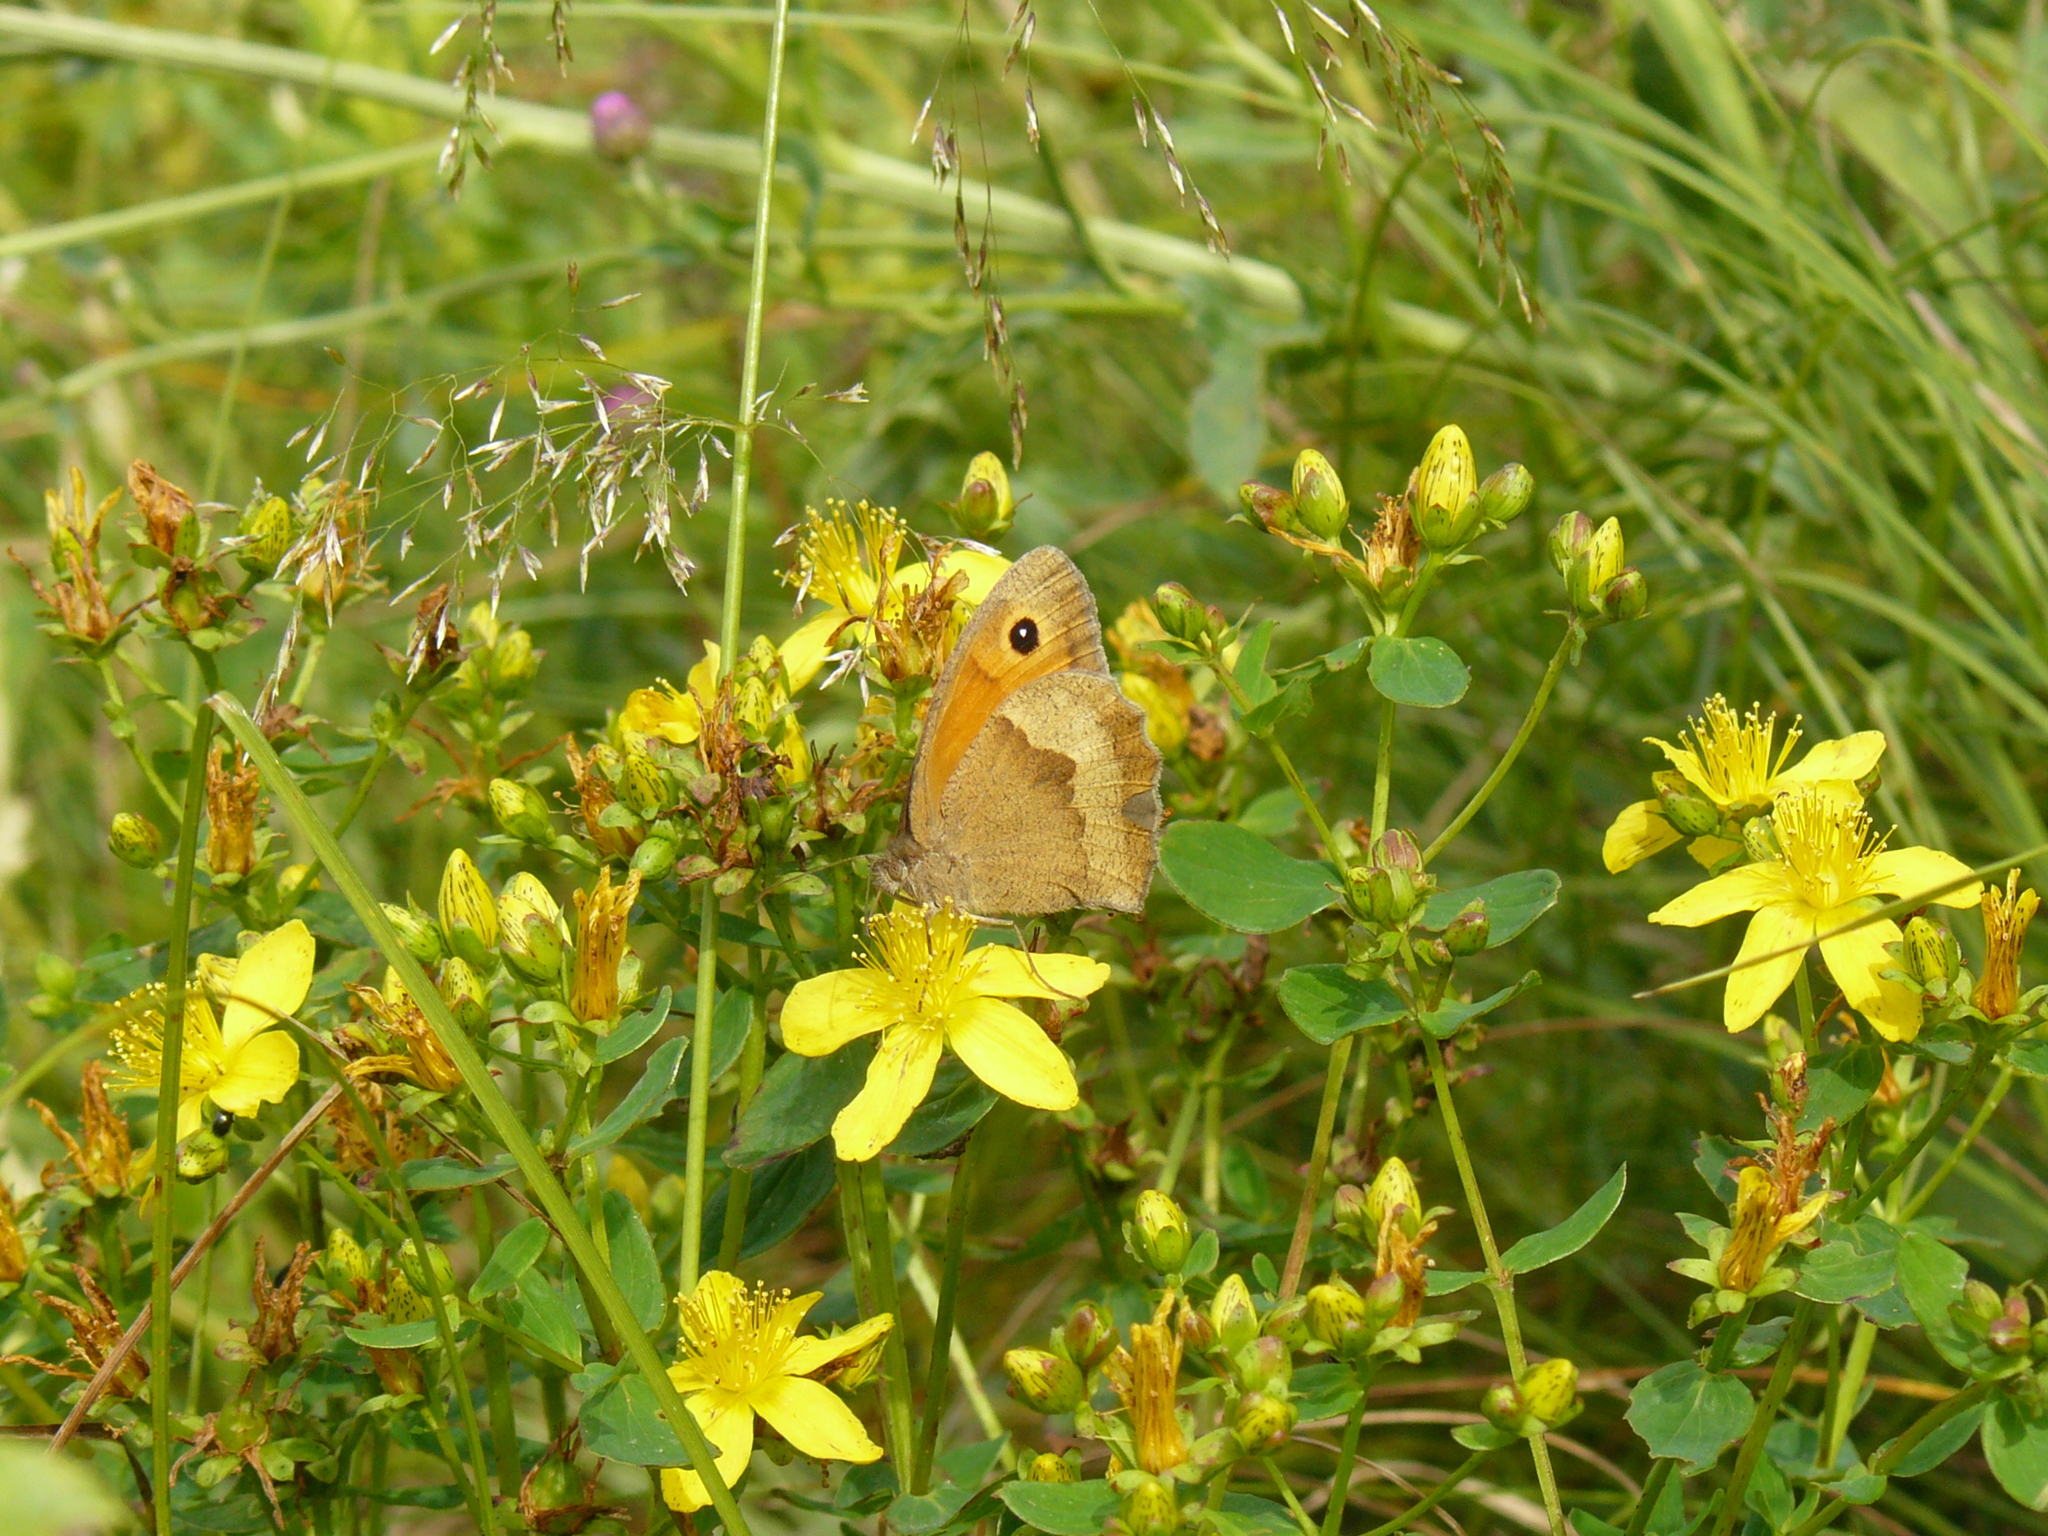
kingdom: Animalia
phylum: Arthropoda
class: Insecta
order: Lepidoptera
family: Nymphalidae
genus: Maniola
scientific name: Maniola jurtina
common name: Meadow brown
